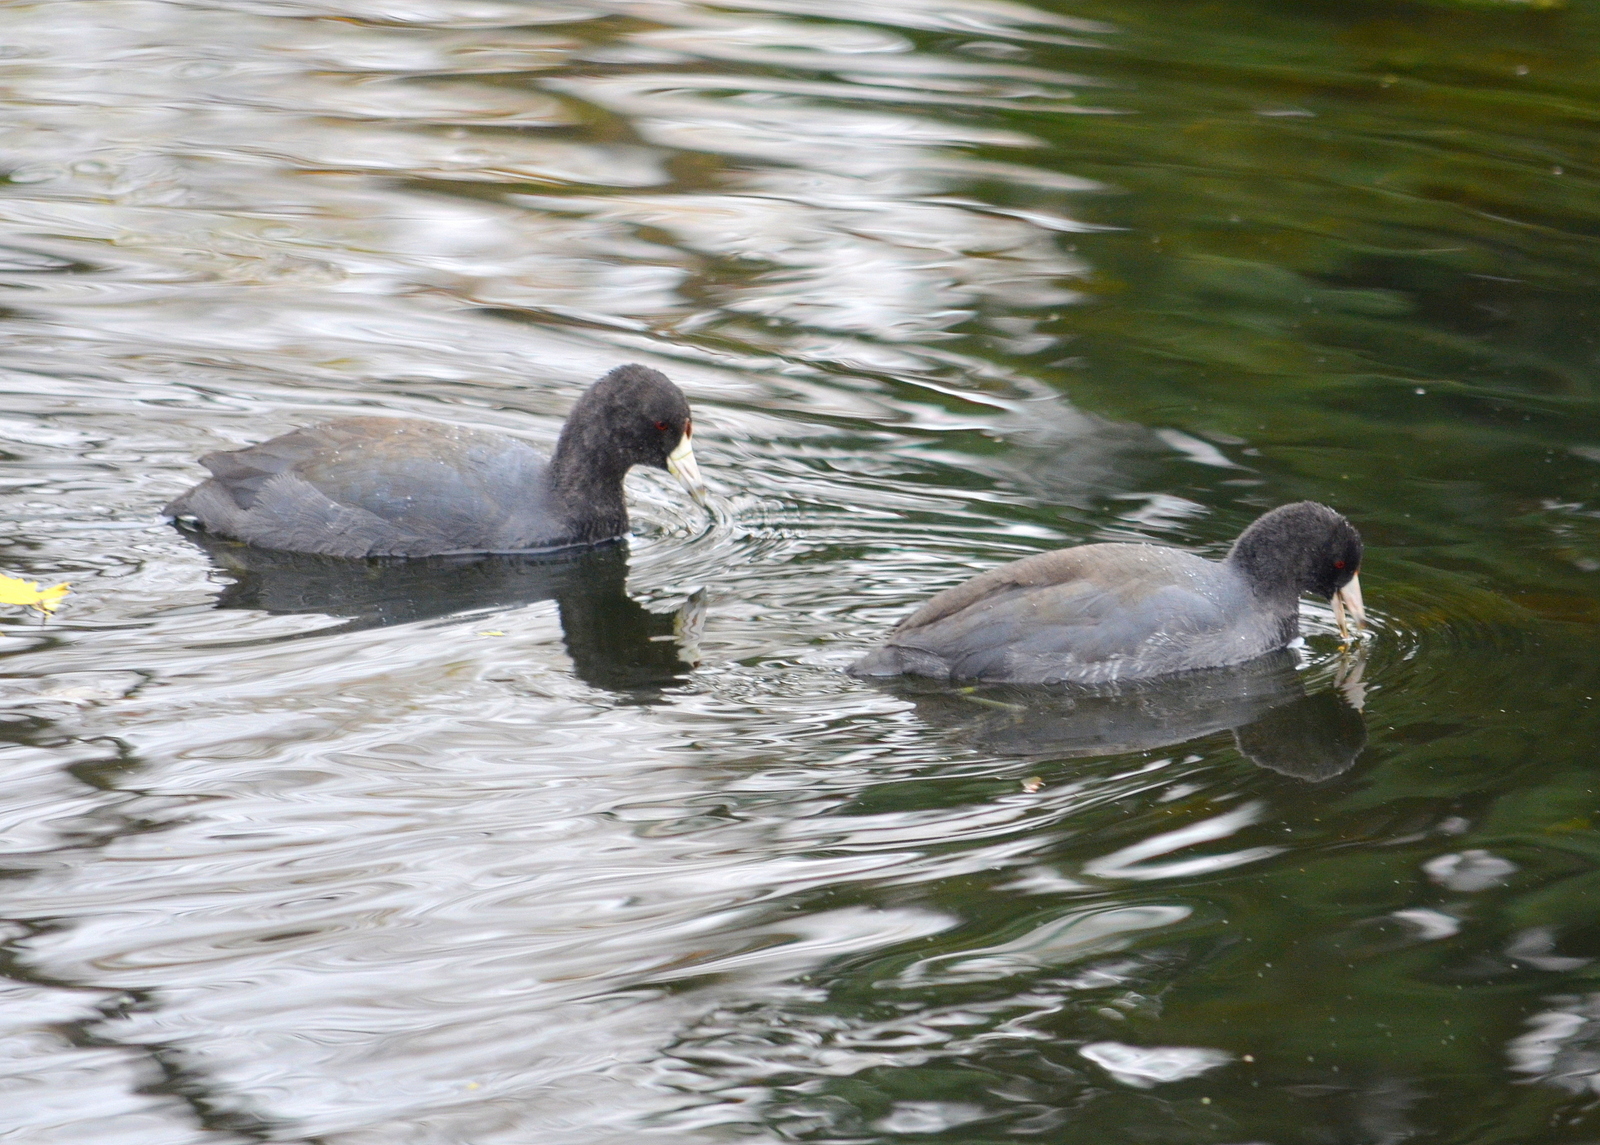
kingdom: Animalia
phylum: Chordata
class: Aves
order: Gruiformes
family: Rallidae
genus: Fulica
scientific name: Fulica americana
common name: American coot
